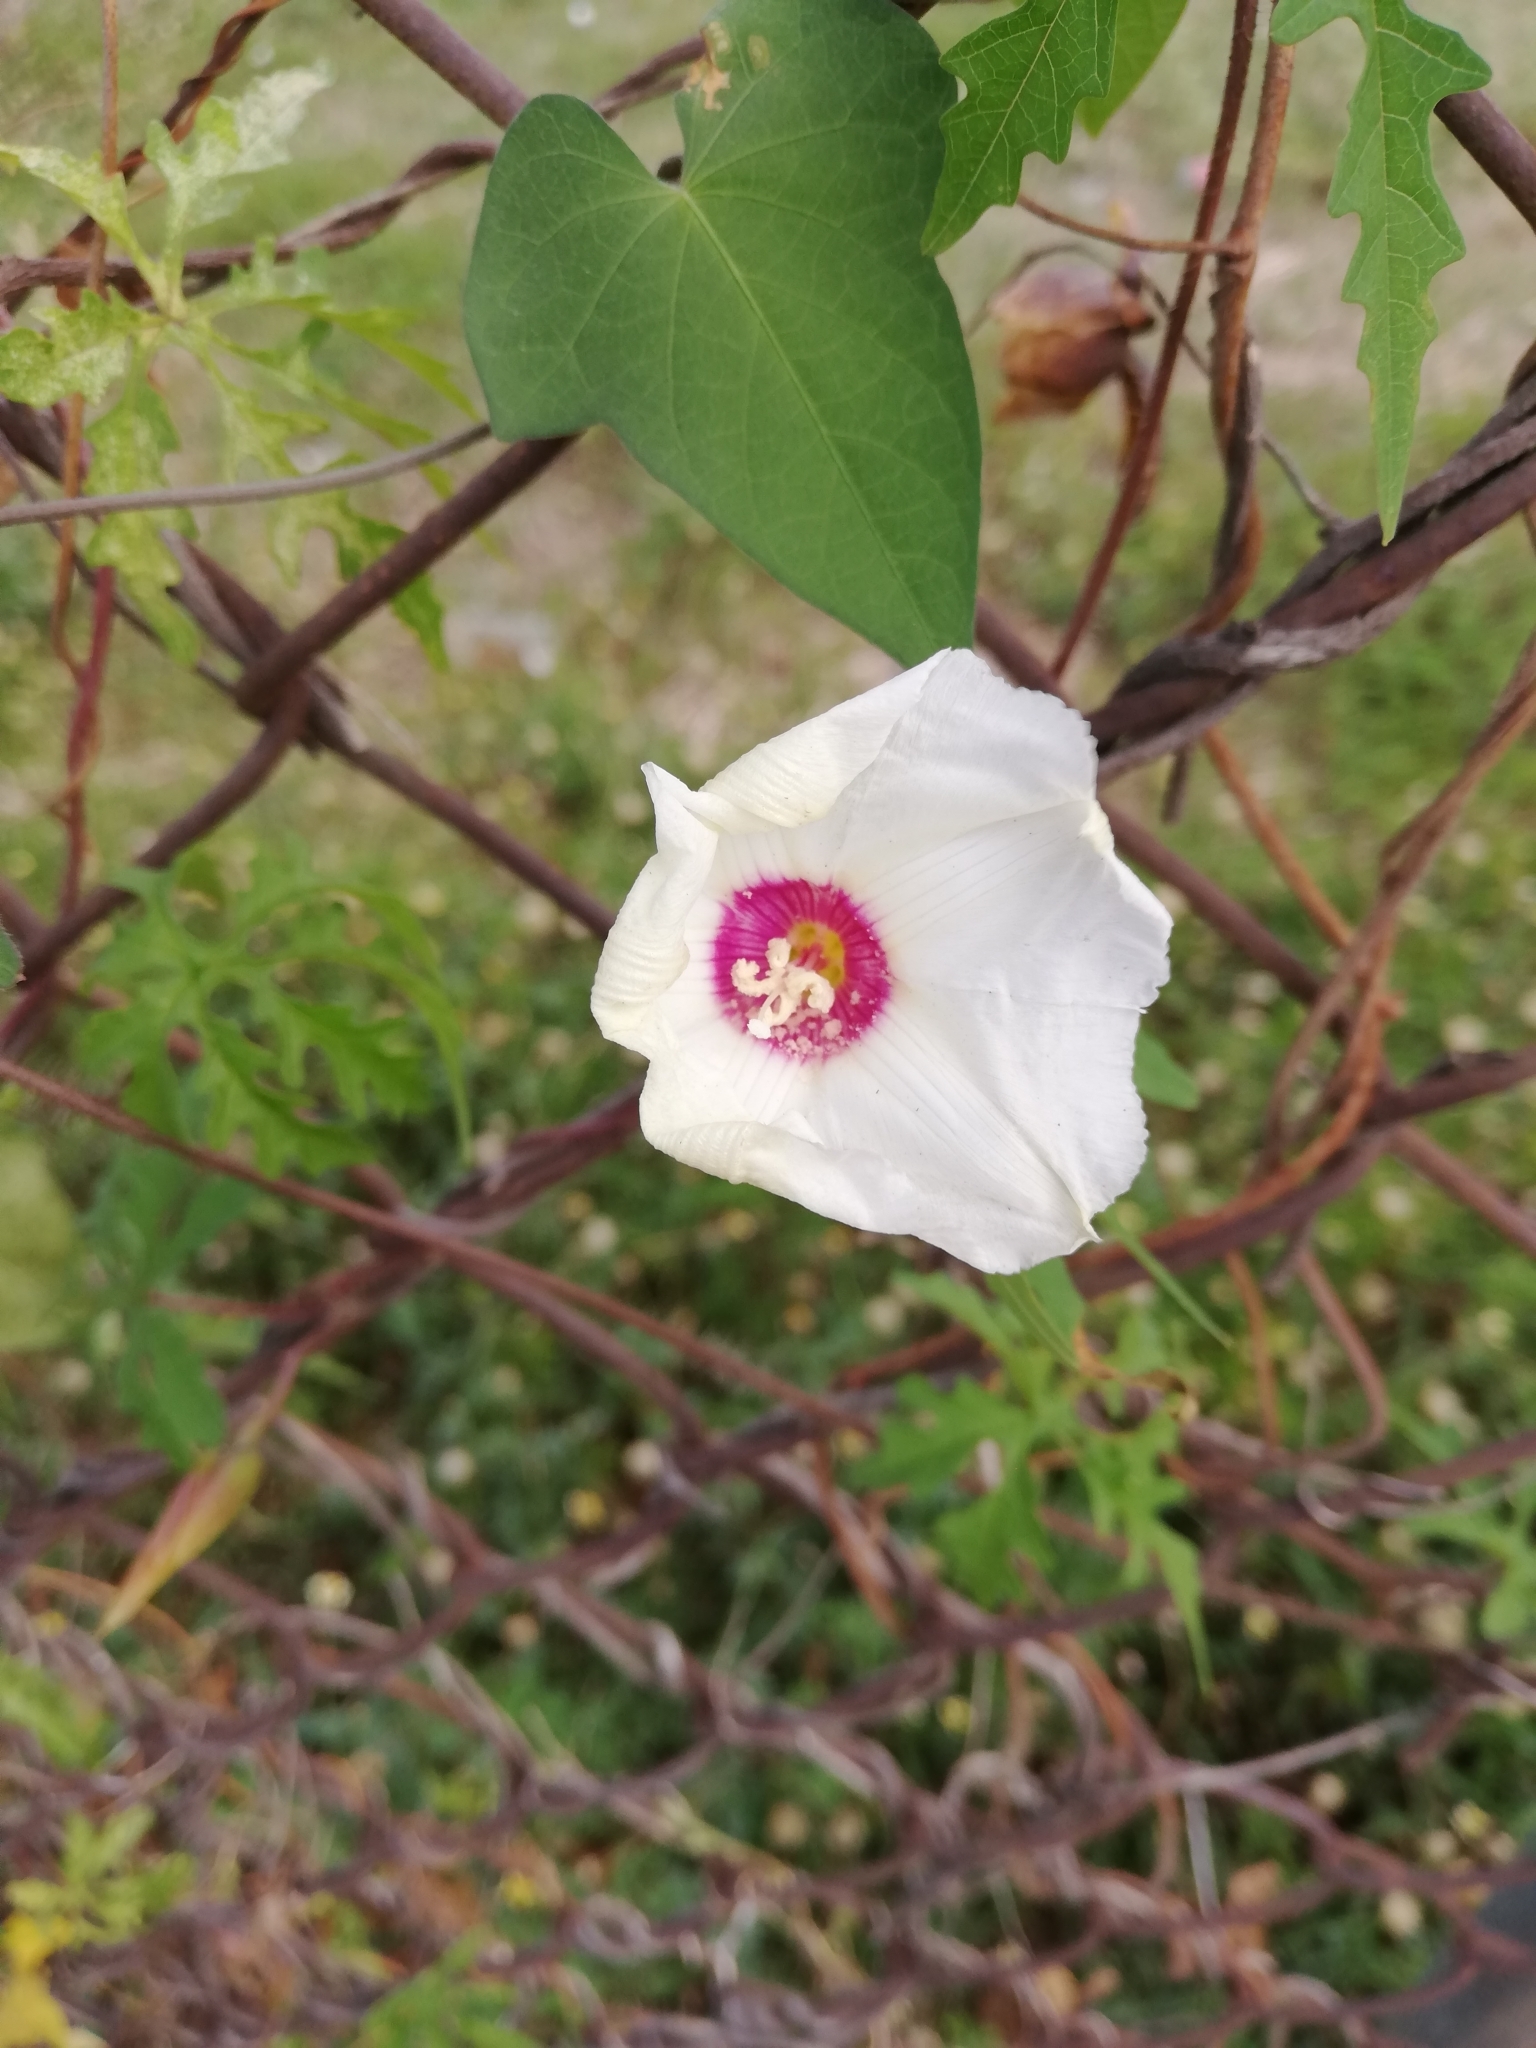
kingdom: Plantae
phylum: Tracheophyta
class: Magnoliopsida
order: Solanales
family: Convolvulaceae
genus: Distimake
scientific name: Distimake dissectus
